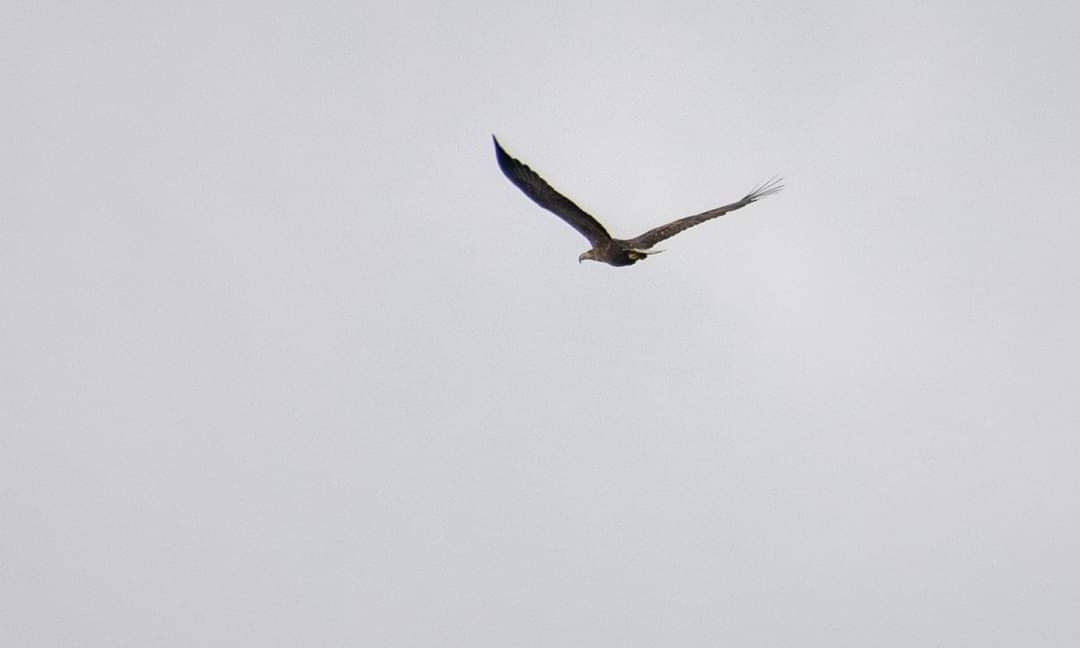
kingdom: Animalia
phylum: Chordata
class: Aves
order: Accipitriformes
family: Accipitridae
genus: Haliaeetus
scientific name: Haliaeetus albicilla
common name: White-tailed eagle
